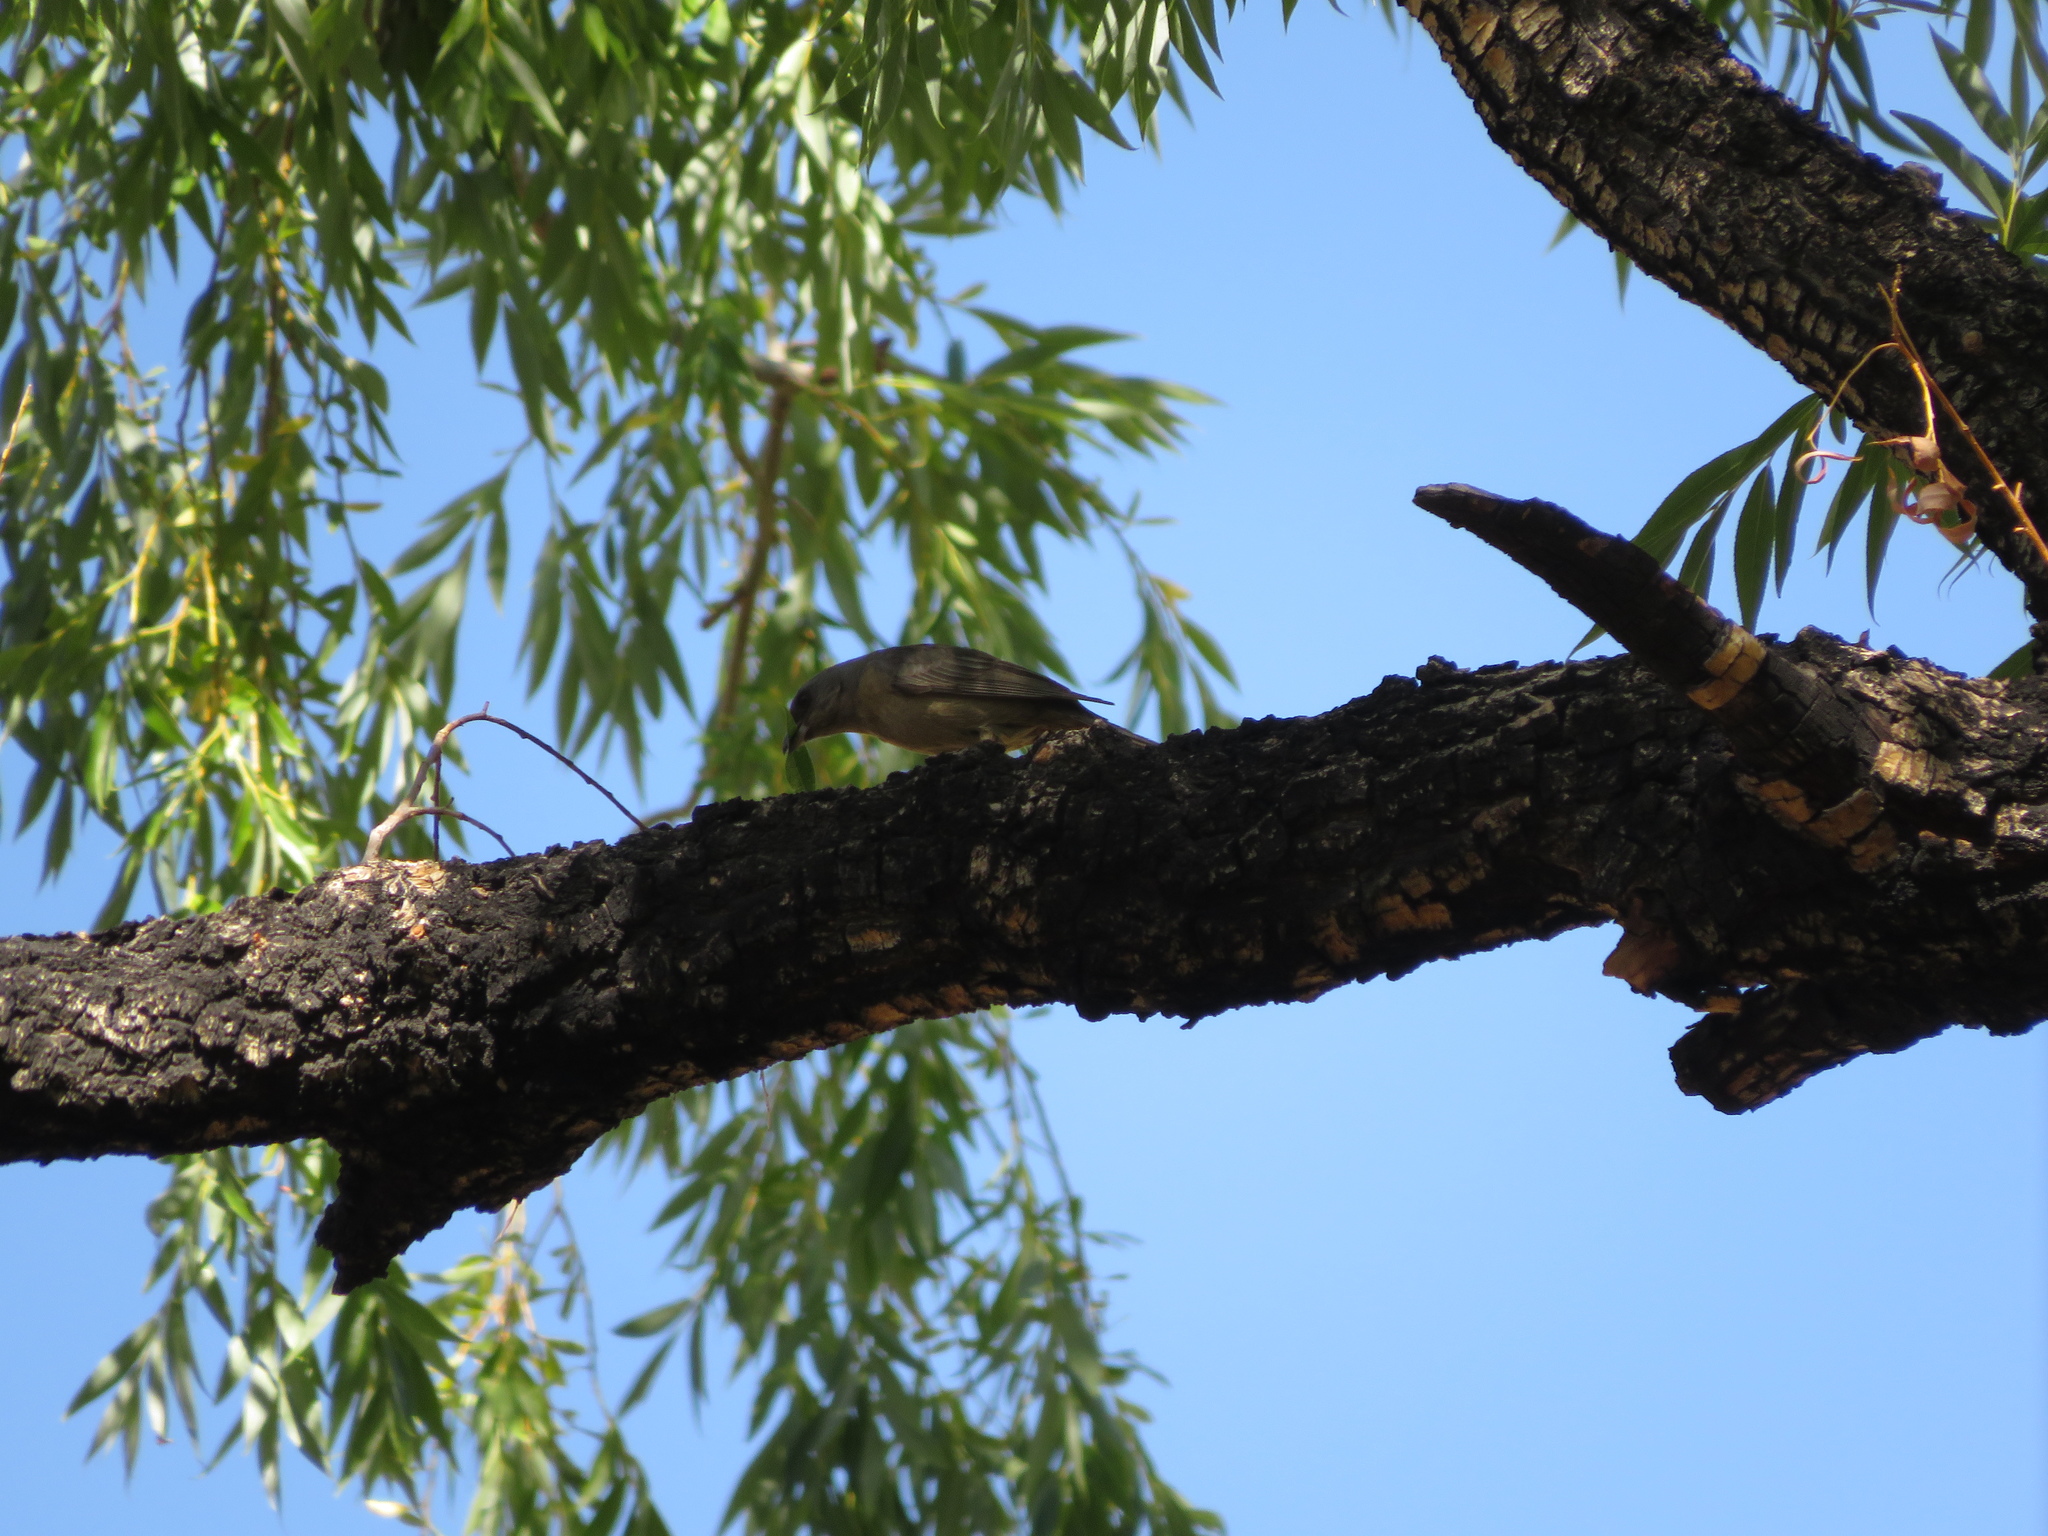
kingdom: Animalia
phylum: Chordata
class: Aves
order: Passeriformes
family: Thraupidae
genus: Rauenia
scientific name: Rauenia bonariensis
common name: Blue-and-yellow tanager
